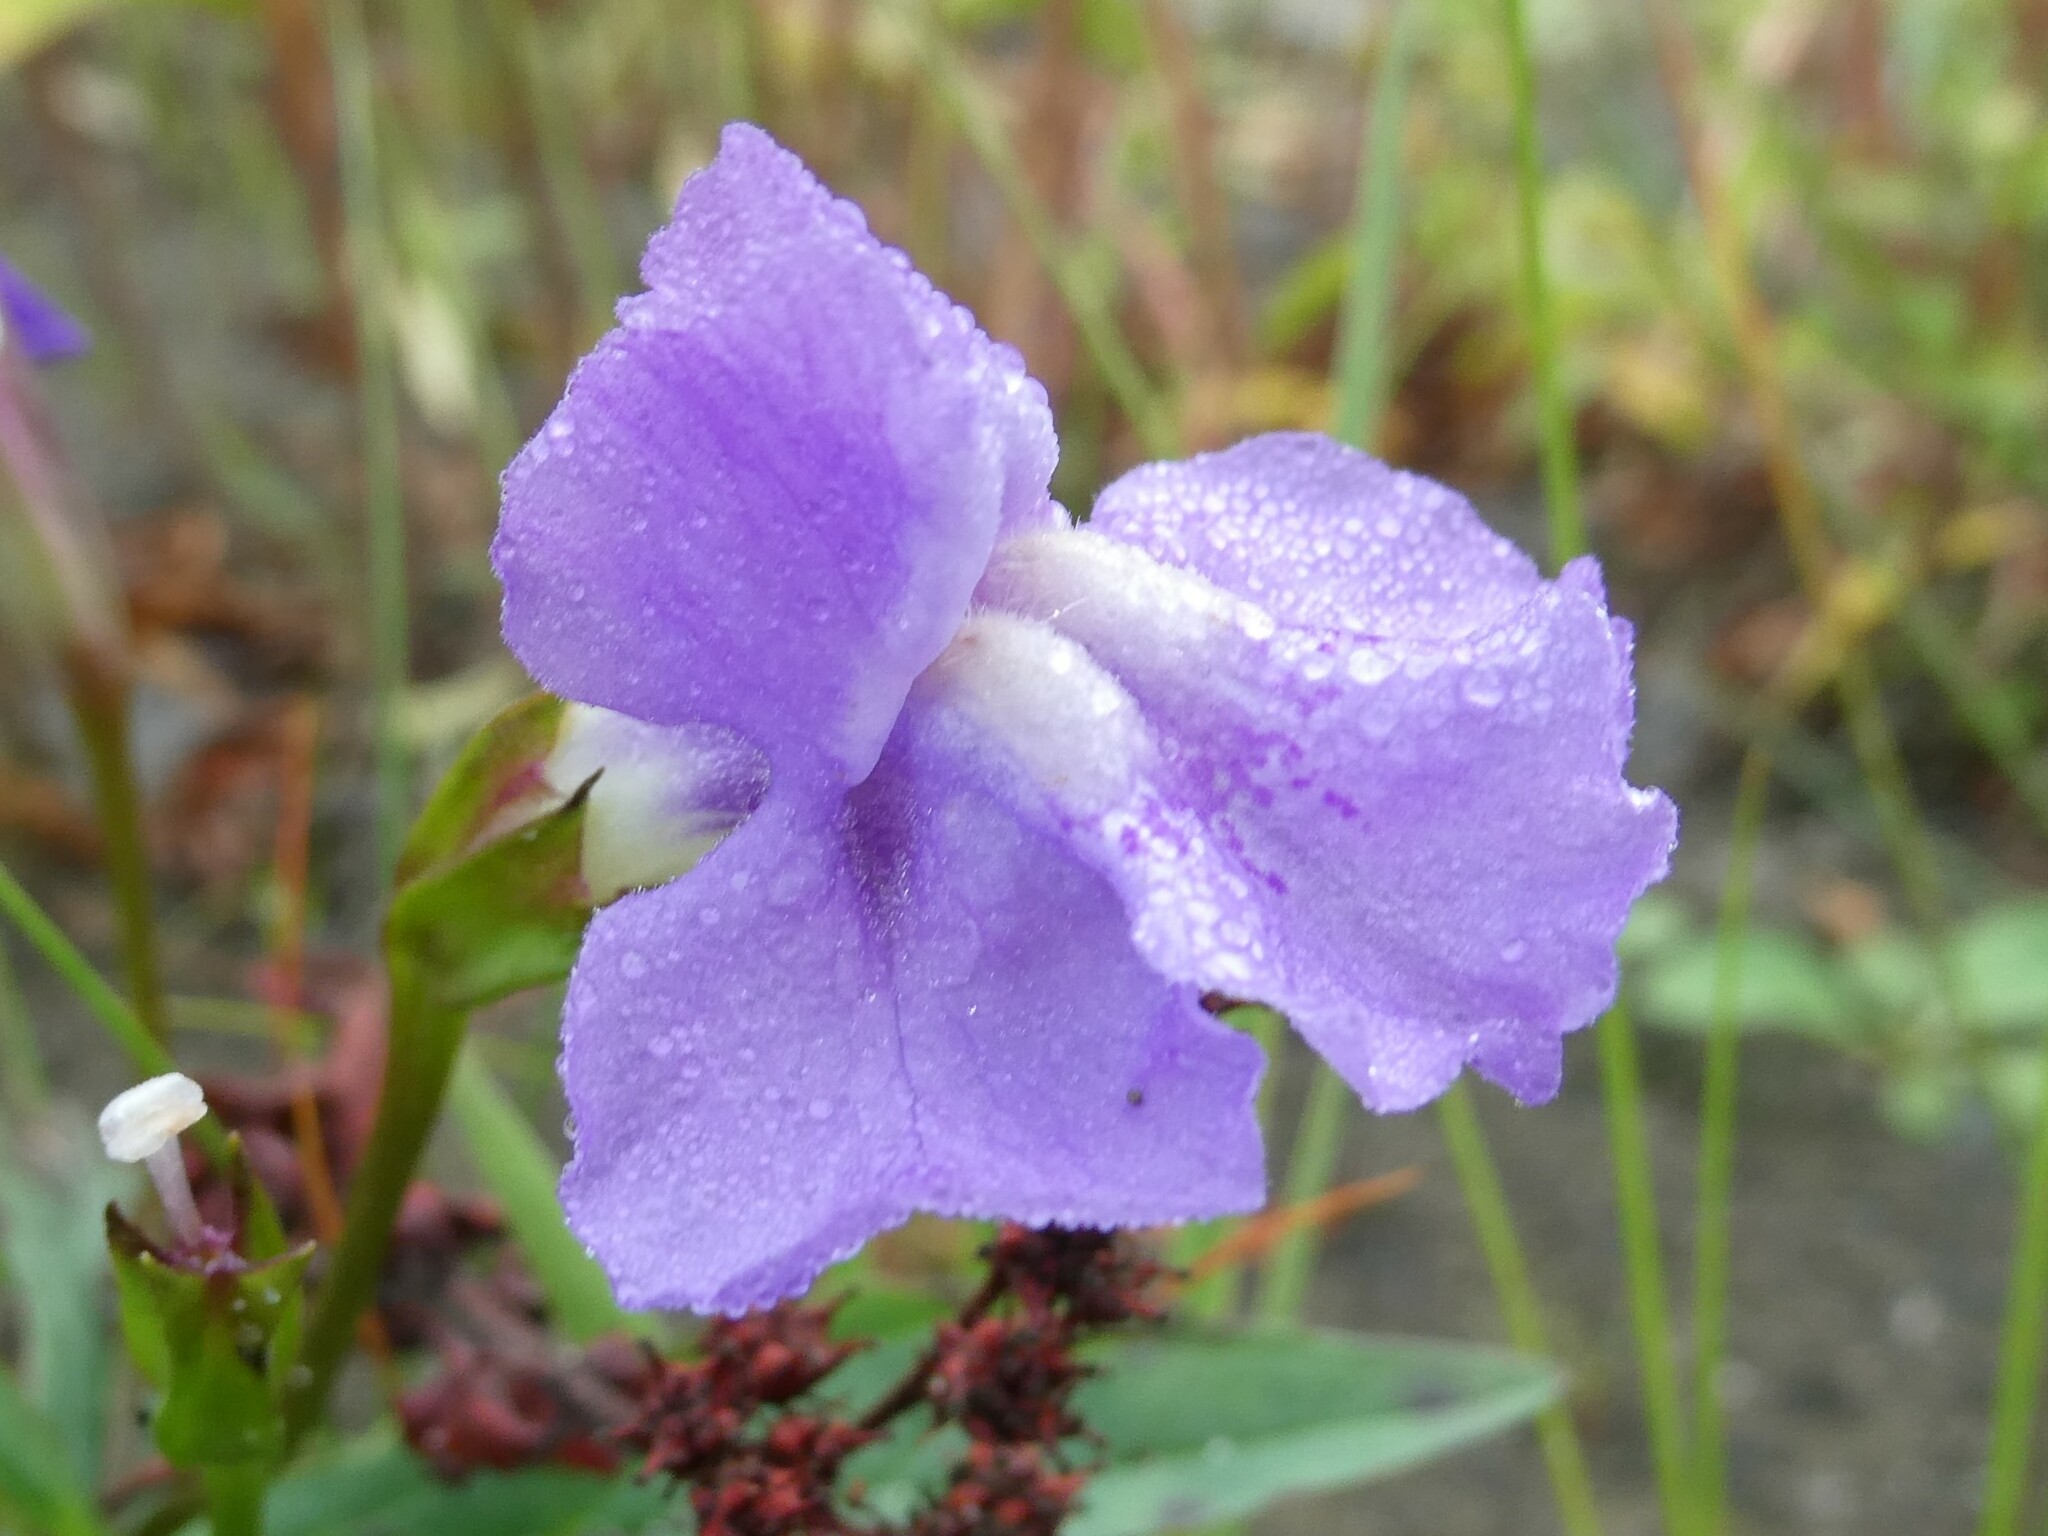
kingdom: Plantae
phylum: Tracheophyta
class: Magnoliopsida
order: Lamiales
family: Phrymaceae
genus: Mimulus
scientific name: Mimulus ringens
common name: Allegheny monkeyflower
